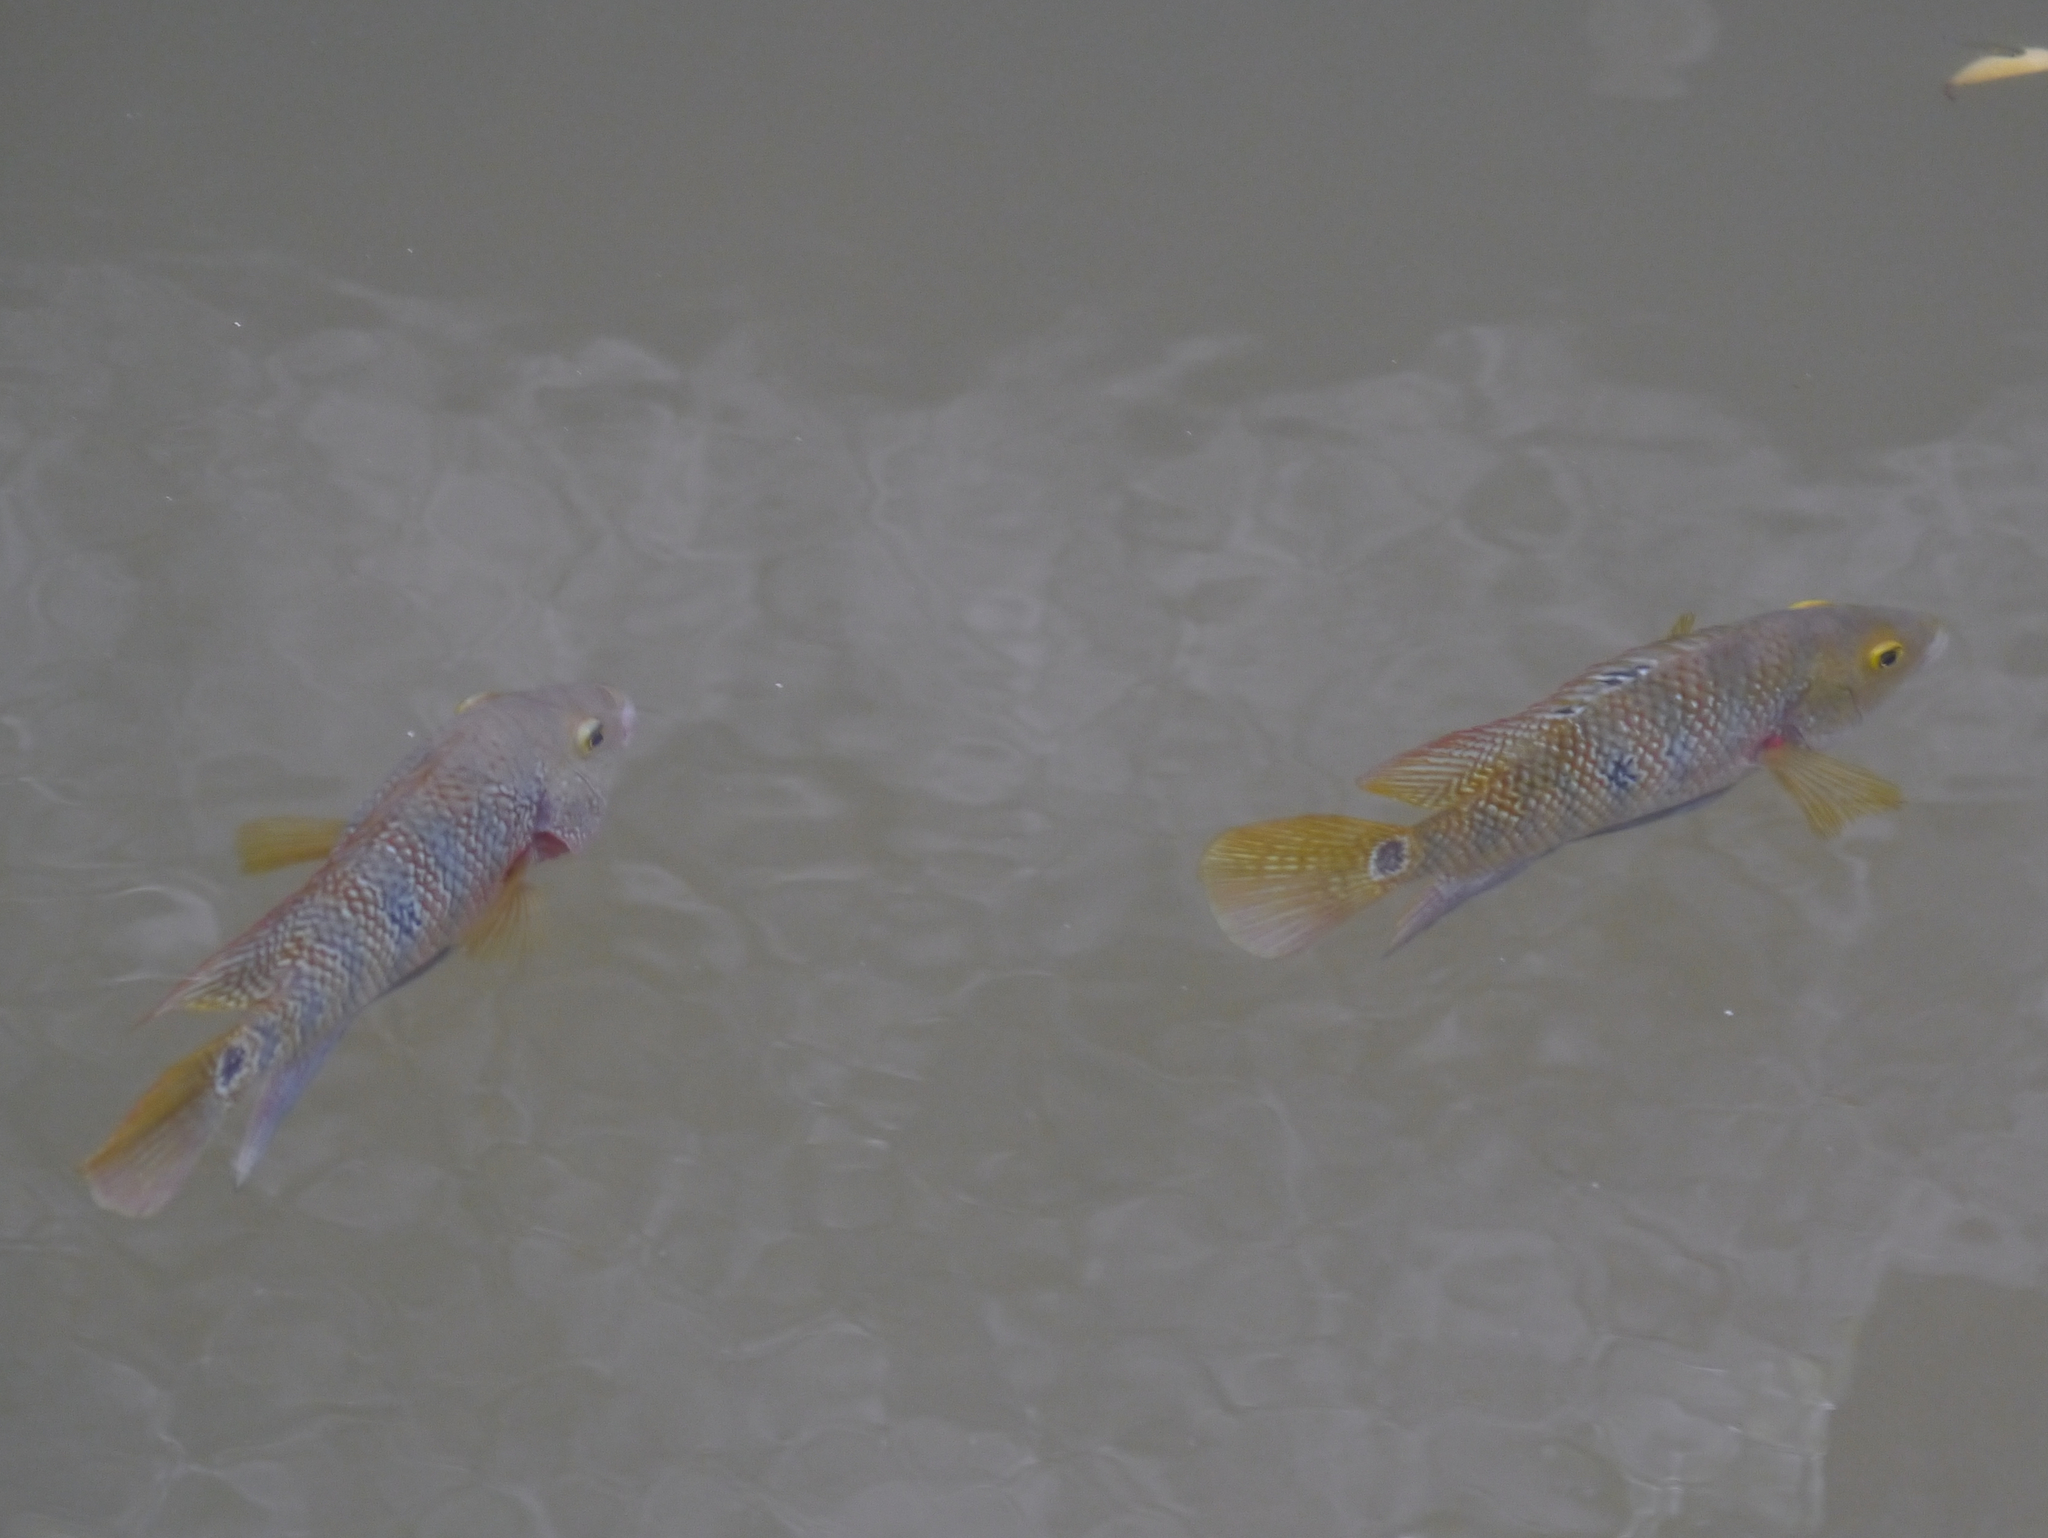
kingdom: Animalia
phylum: Chordata
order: Perciformes
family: Cichlidae
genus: Mayaheros
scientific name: Mayaheros urophthalmus
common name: Mayan cichlid
